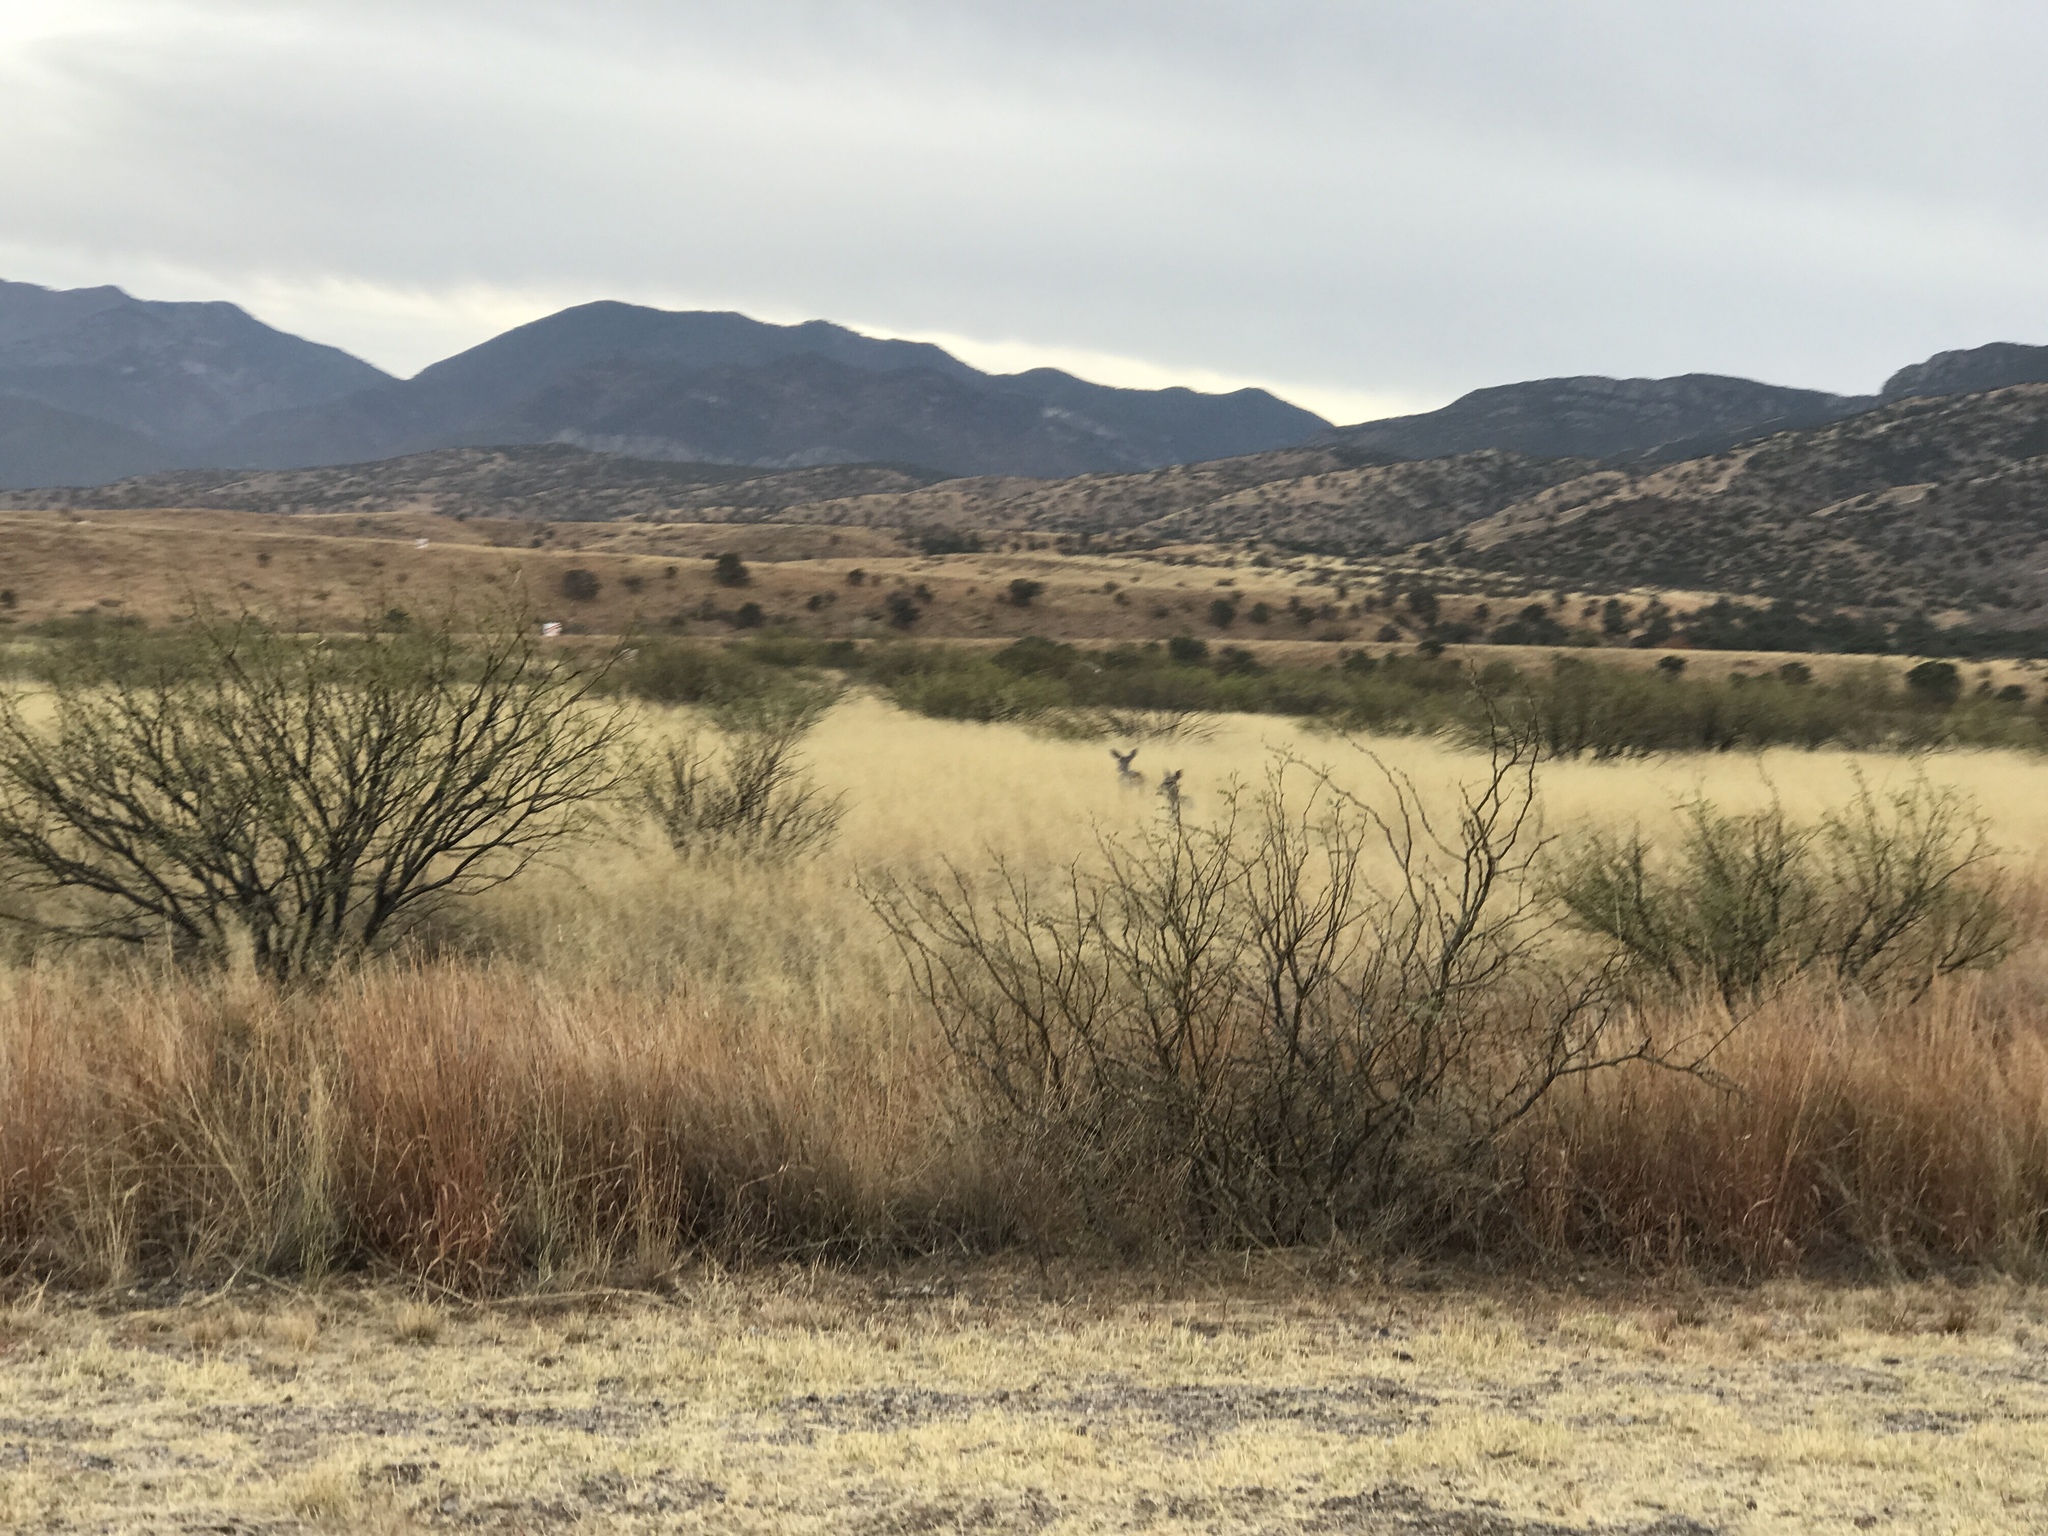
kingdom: Animalia
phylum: Chordata
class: Mammalia
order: Artiodactyla
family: Cervidae
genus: Odocoileus
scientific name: Odocoileus virginianus
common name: White-tailed deer
